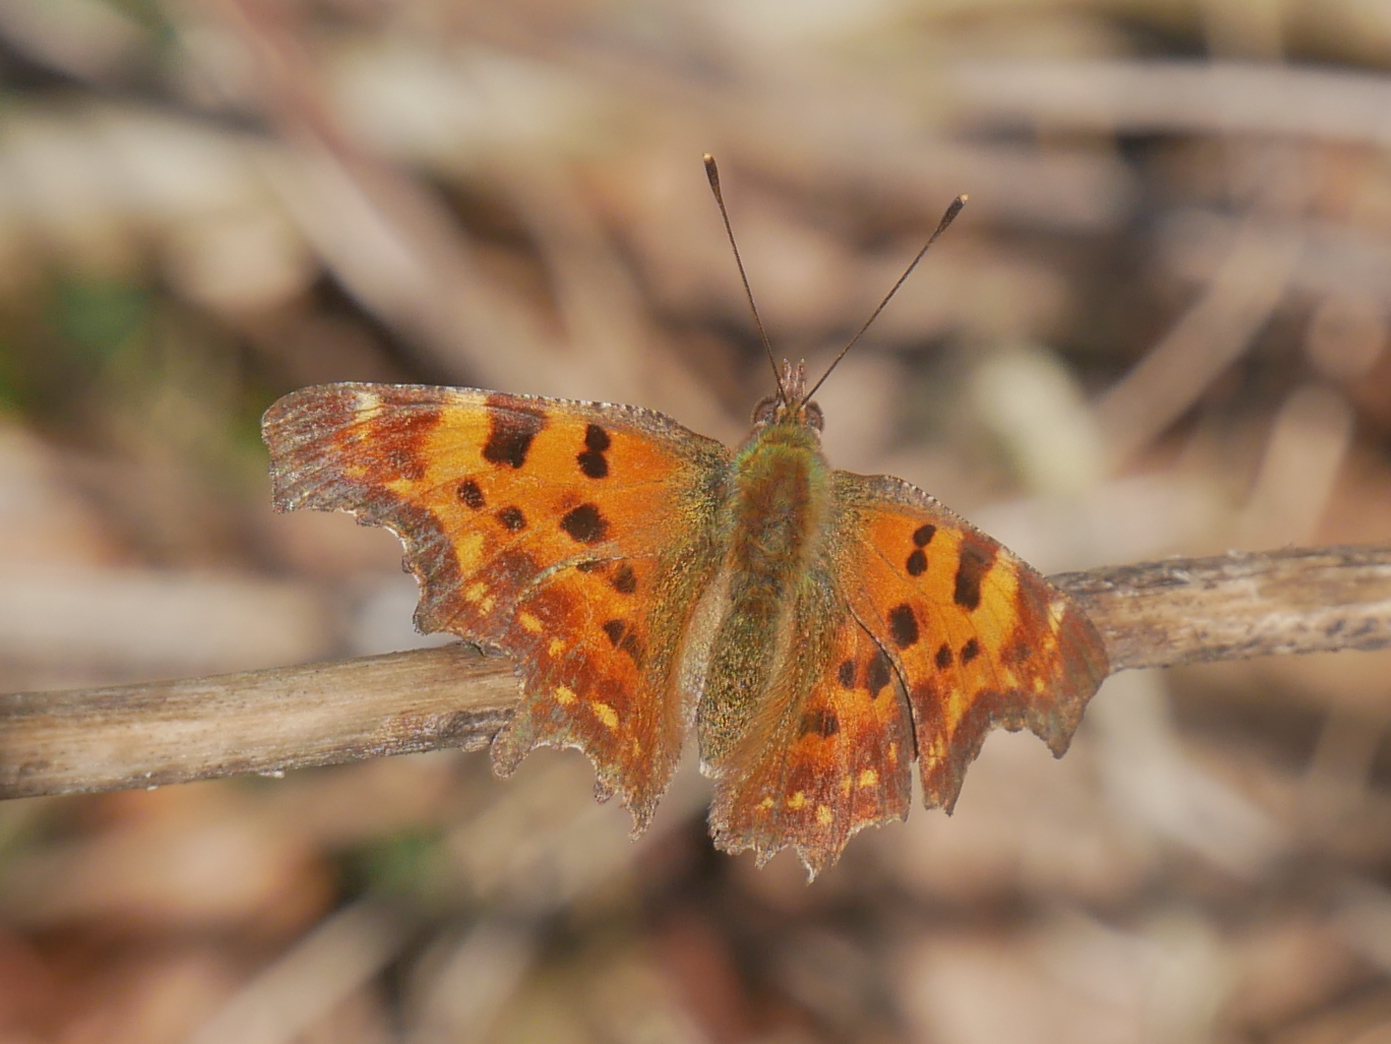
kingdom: Animalia
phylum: Arthropoda
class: Insecta
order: Lepidoptera
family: Nymphalidae
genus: Polygonia
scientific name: Polygonia c-album
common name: Comma
